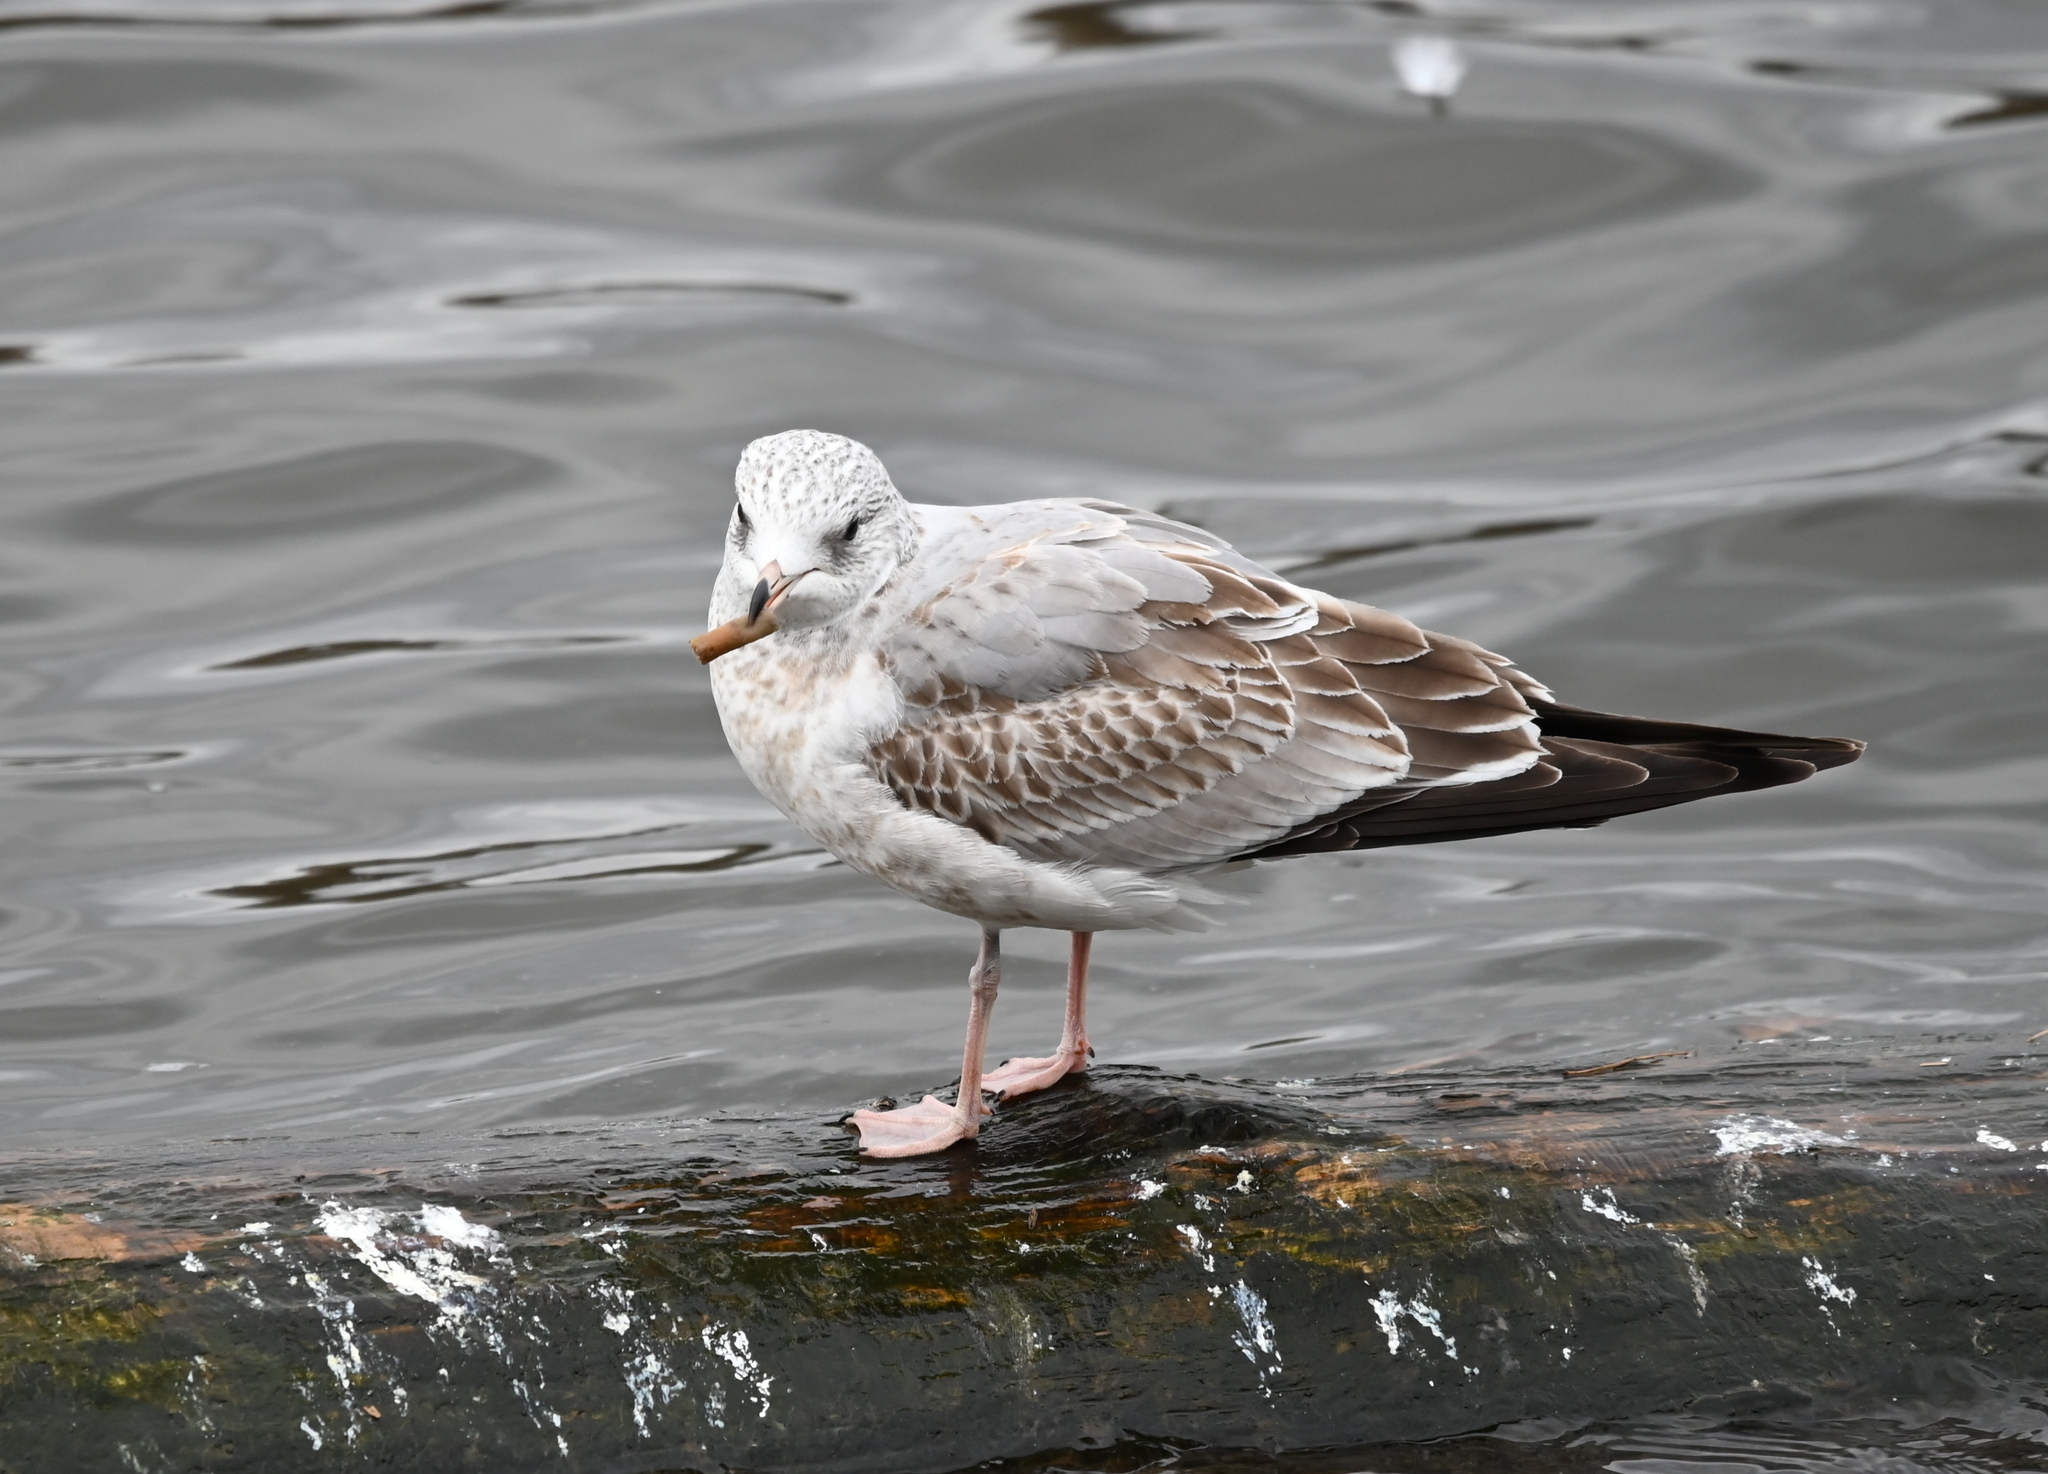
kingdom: Animalia
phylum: Chordata
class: Aves
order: Charadriiformes
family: Laridae
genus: Larus
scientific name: Larus canus
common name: Mew gull
